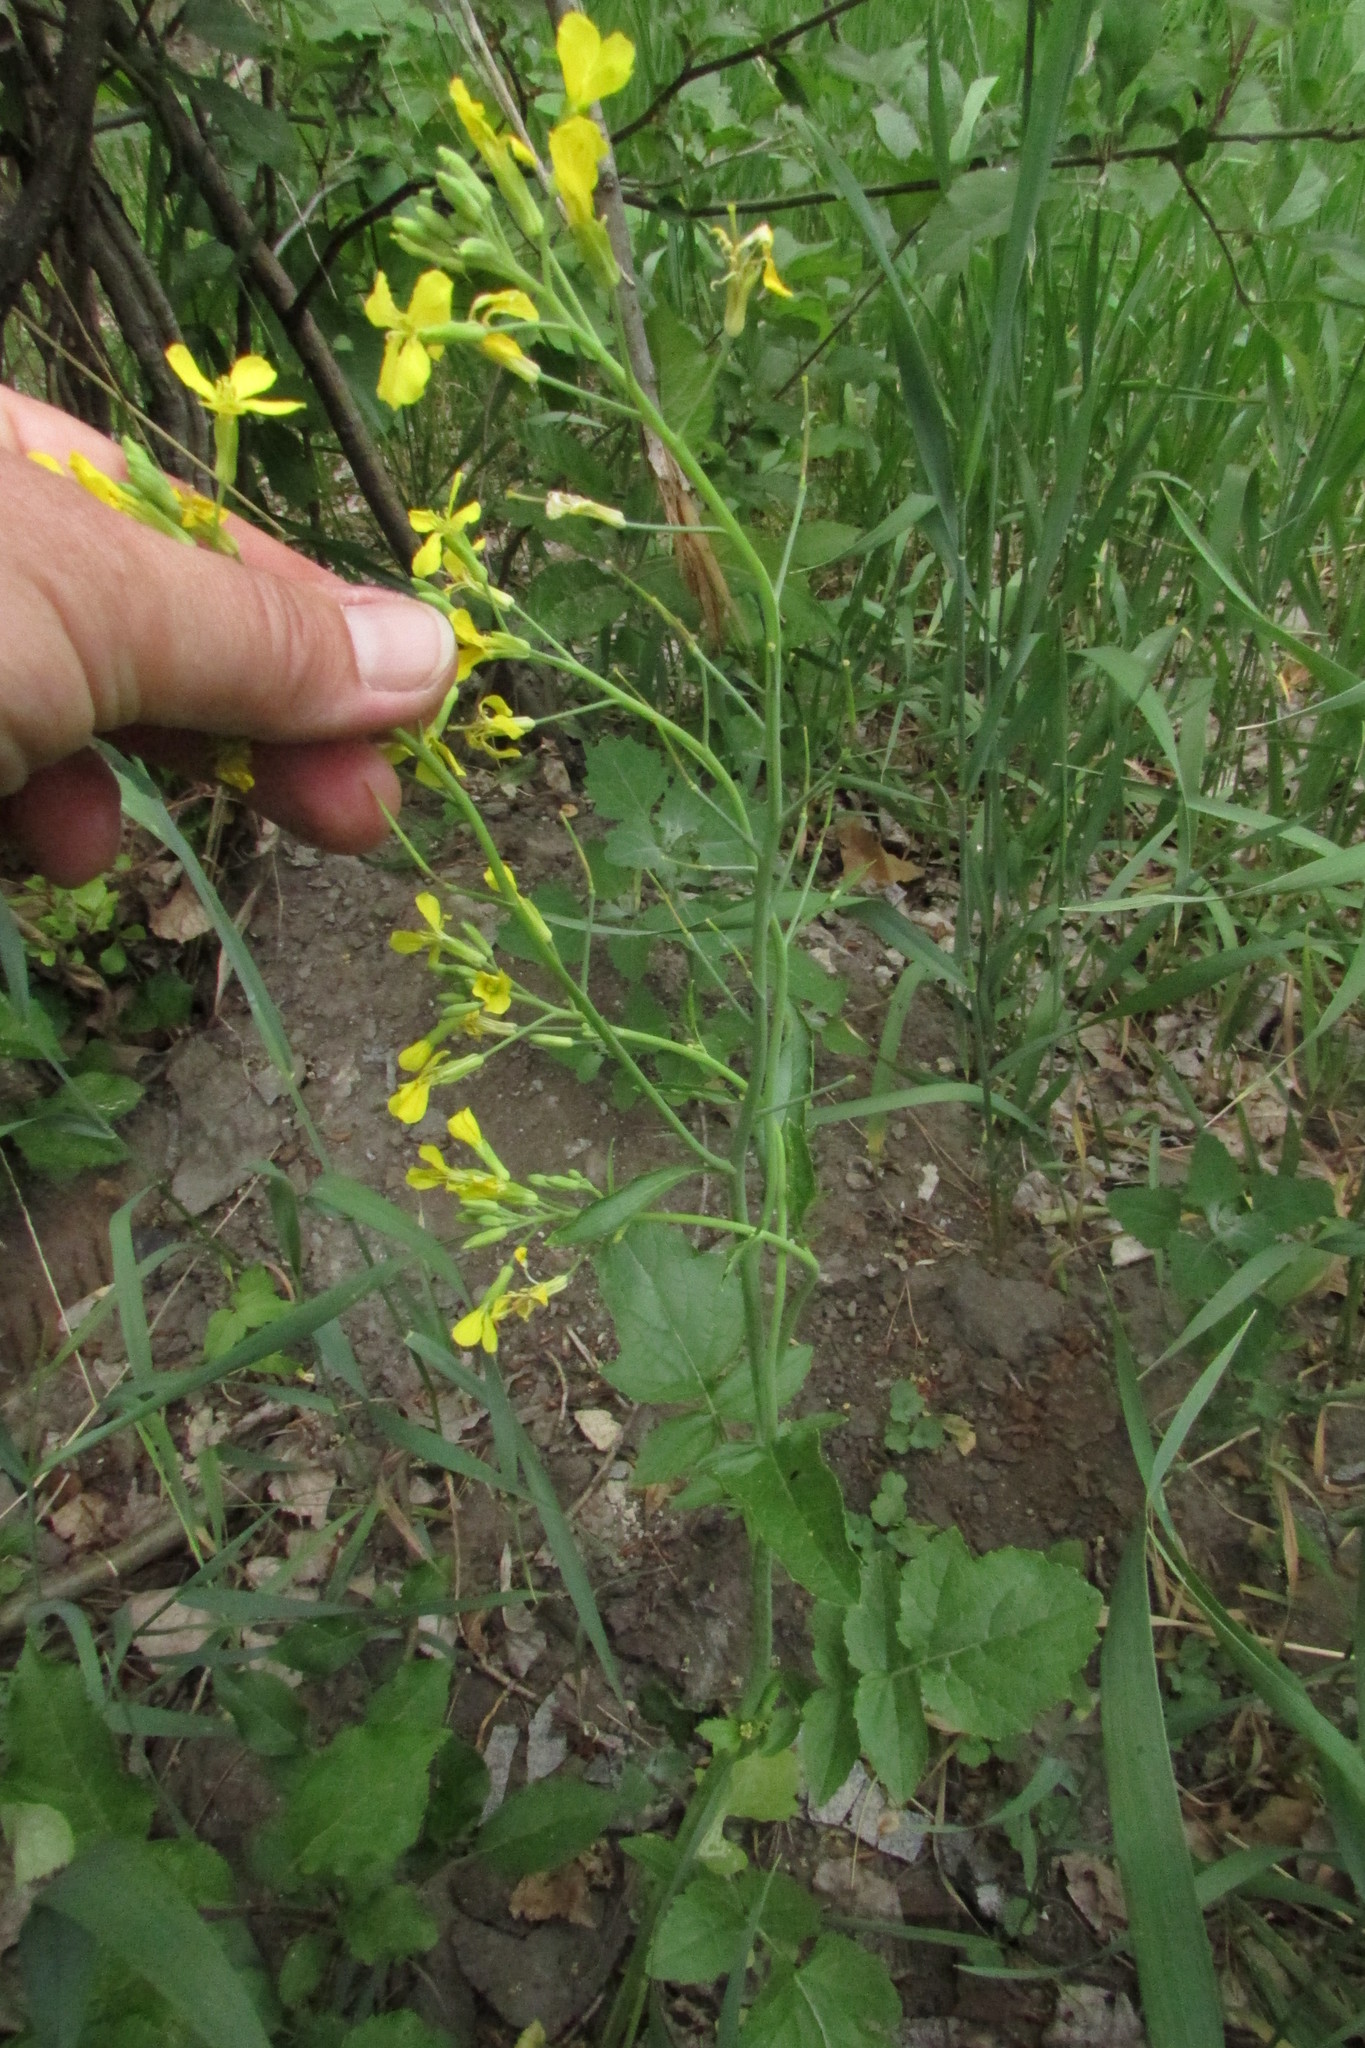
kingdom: Plantae
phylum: Tracheophyta
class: Magnoliopsida
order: Brassicales
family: Brassicaceae
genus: Raphanus
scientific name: Raphanus raphanistrum
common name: Wild radish
